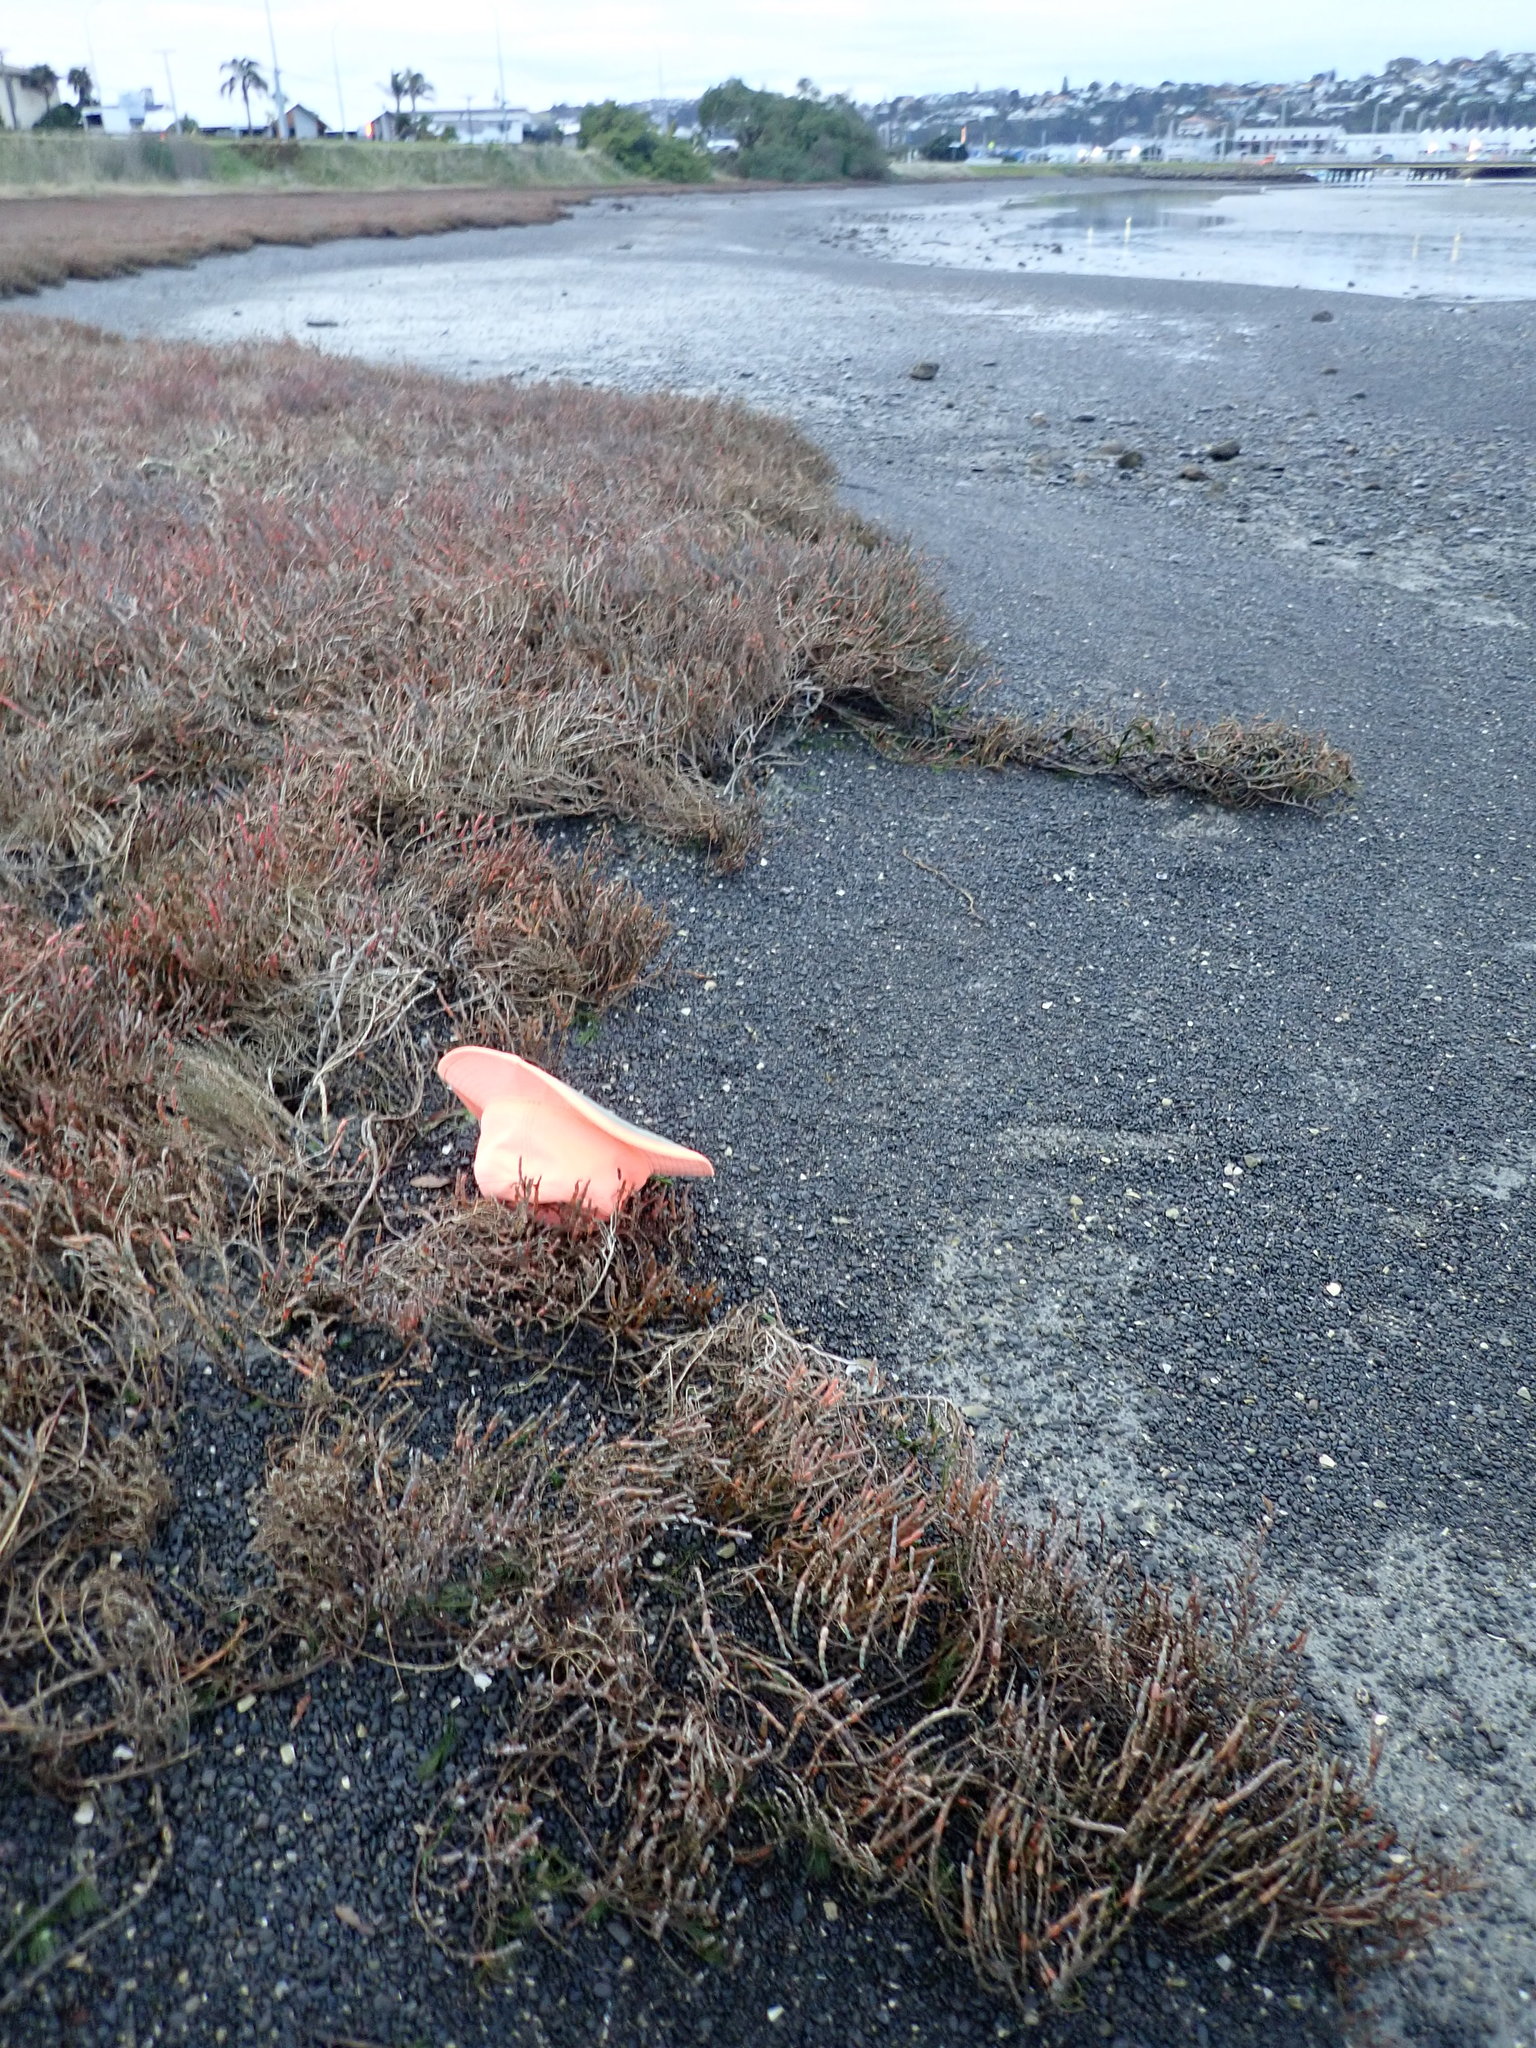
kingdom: Plantae
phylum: Tracheophyta
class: Magnoliopsida
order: Ceratophyllales
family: Ceratophyllaceae
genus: Ceratophyllum
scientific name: Ceratophyllum demersum
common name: Rigid hornwort
